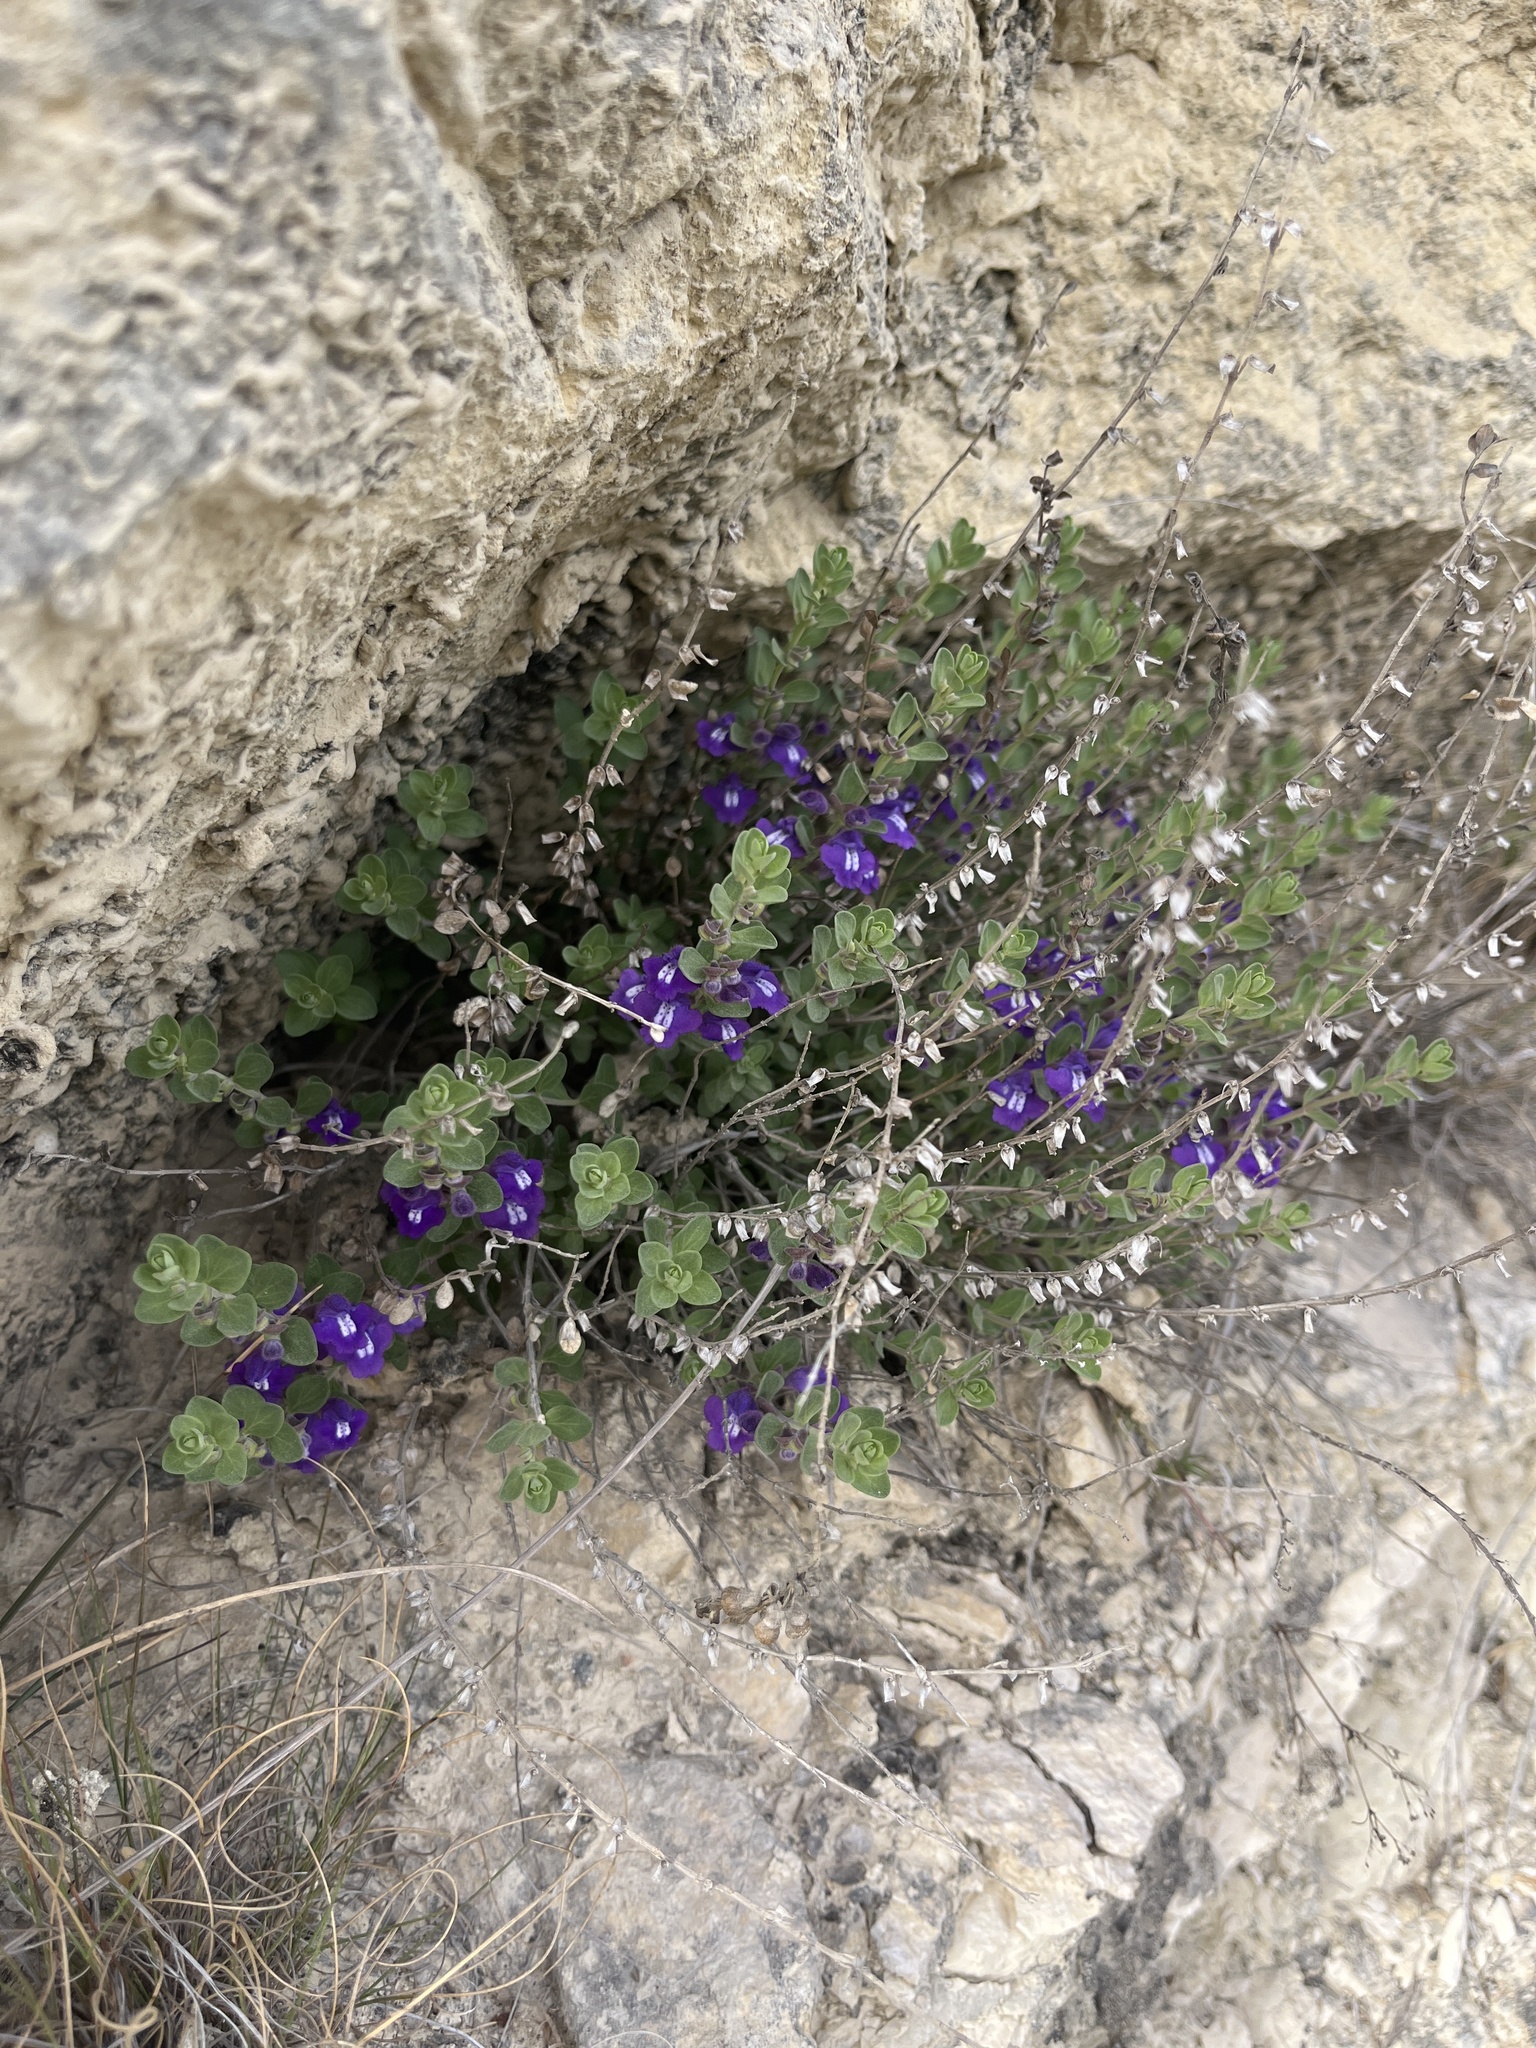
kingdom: Plantae
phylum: Tracheophyta
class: Magnoliopsida
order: Lamiales
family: Lamiaceae
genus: Scutellaria
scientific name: Scutellaria wrightii
